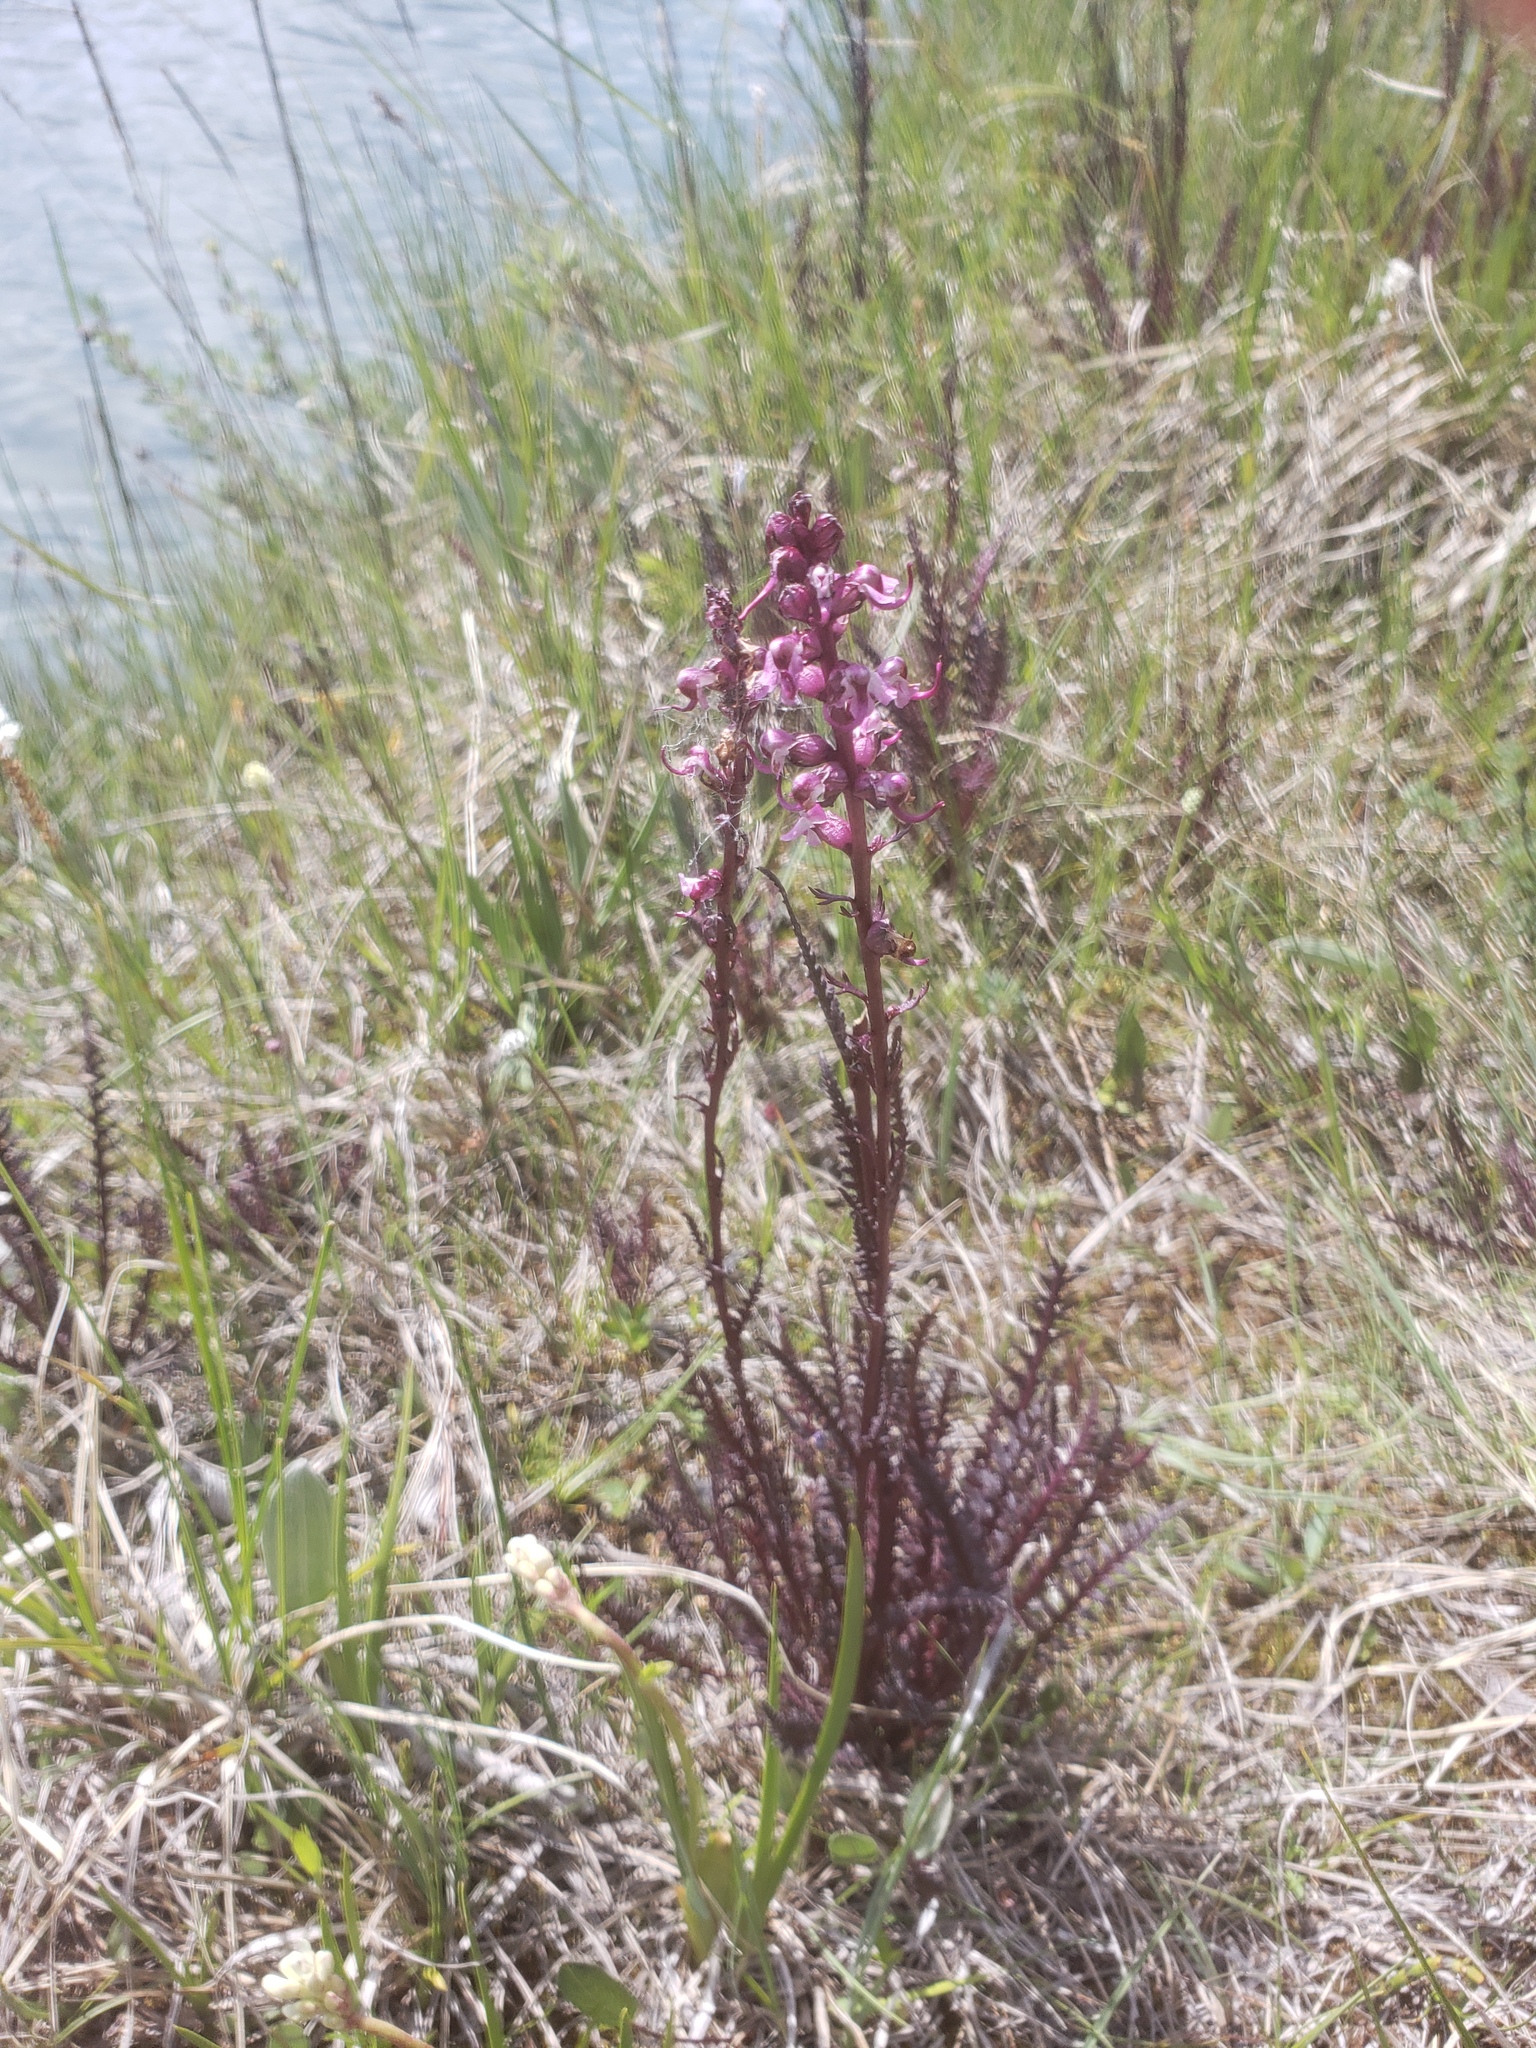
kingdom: Plantae
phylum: Tracheophyta
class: Magnoliopsida
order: Lamiales
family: Orobanchaceae
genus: Pedicularis
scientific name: Pedicularis groenlandica
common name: Elephant's-head
